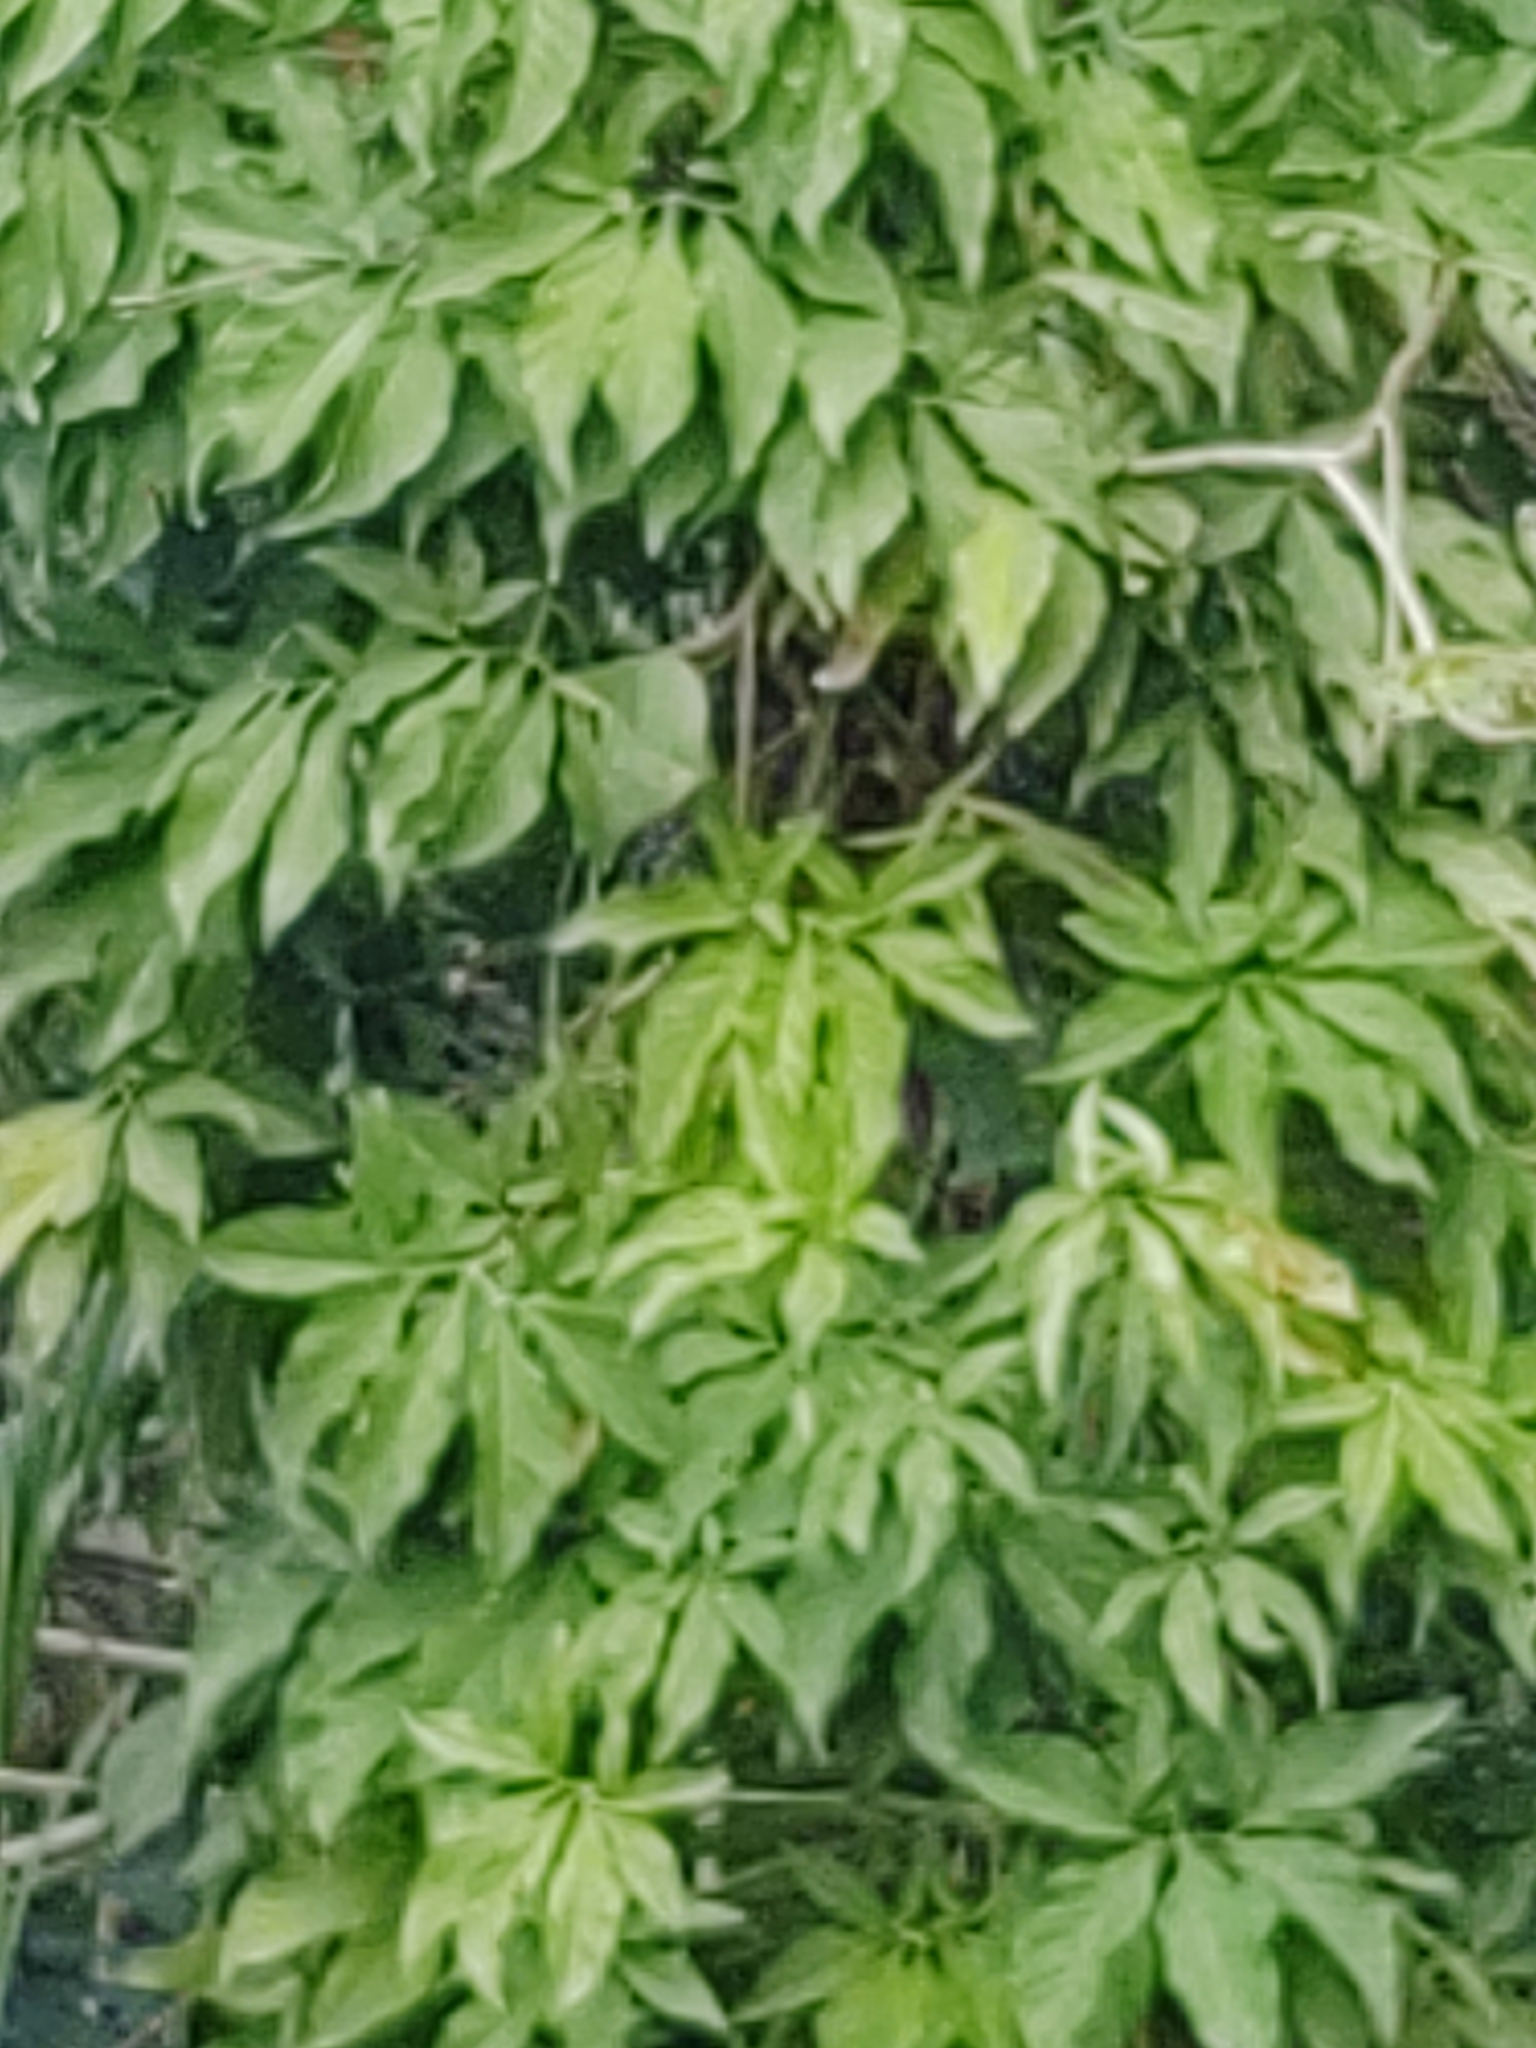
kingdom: Plantae
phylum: Tracheophyta
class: Liliopsida
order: Alismatales
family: Araceae
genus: Syngonium
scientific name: Syngonium podophyllum
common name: American evergreen
